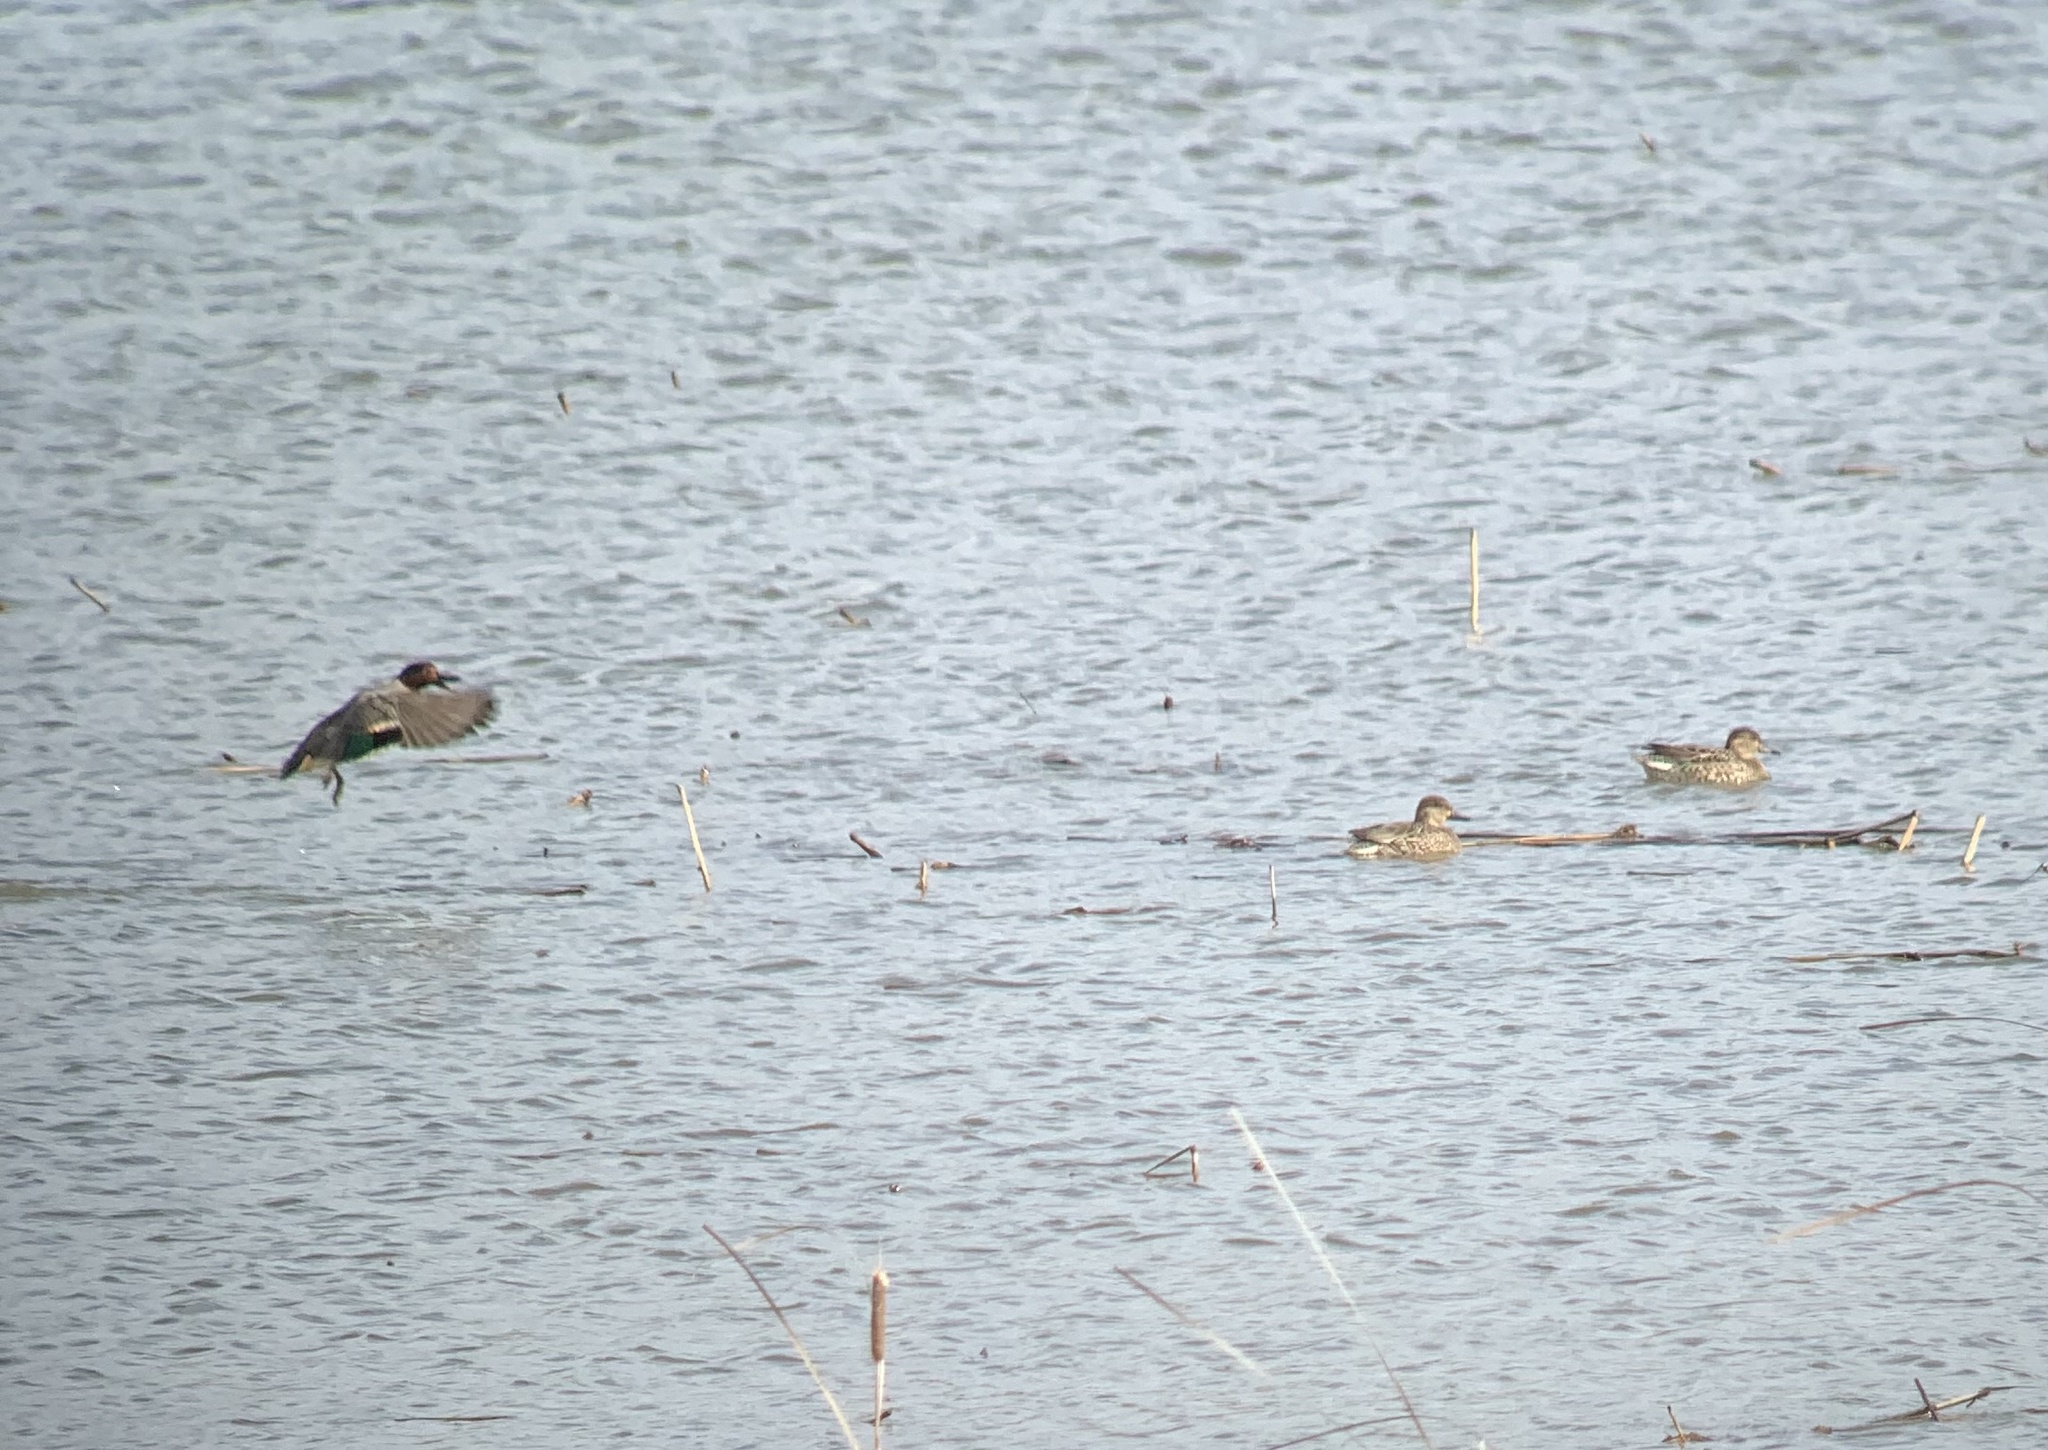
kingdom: Animalia
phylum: Chordata
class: Aves
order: Anseriformes
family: Anatidae
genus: Anas
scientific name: Anas crecca
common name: Eurasian teal
